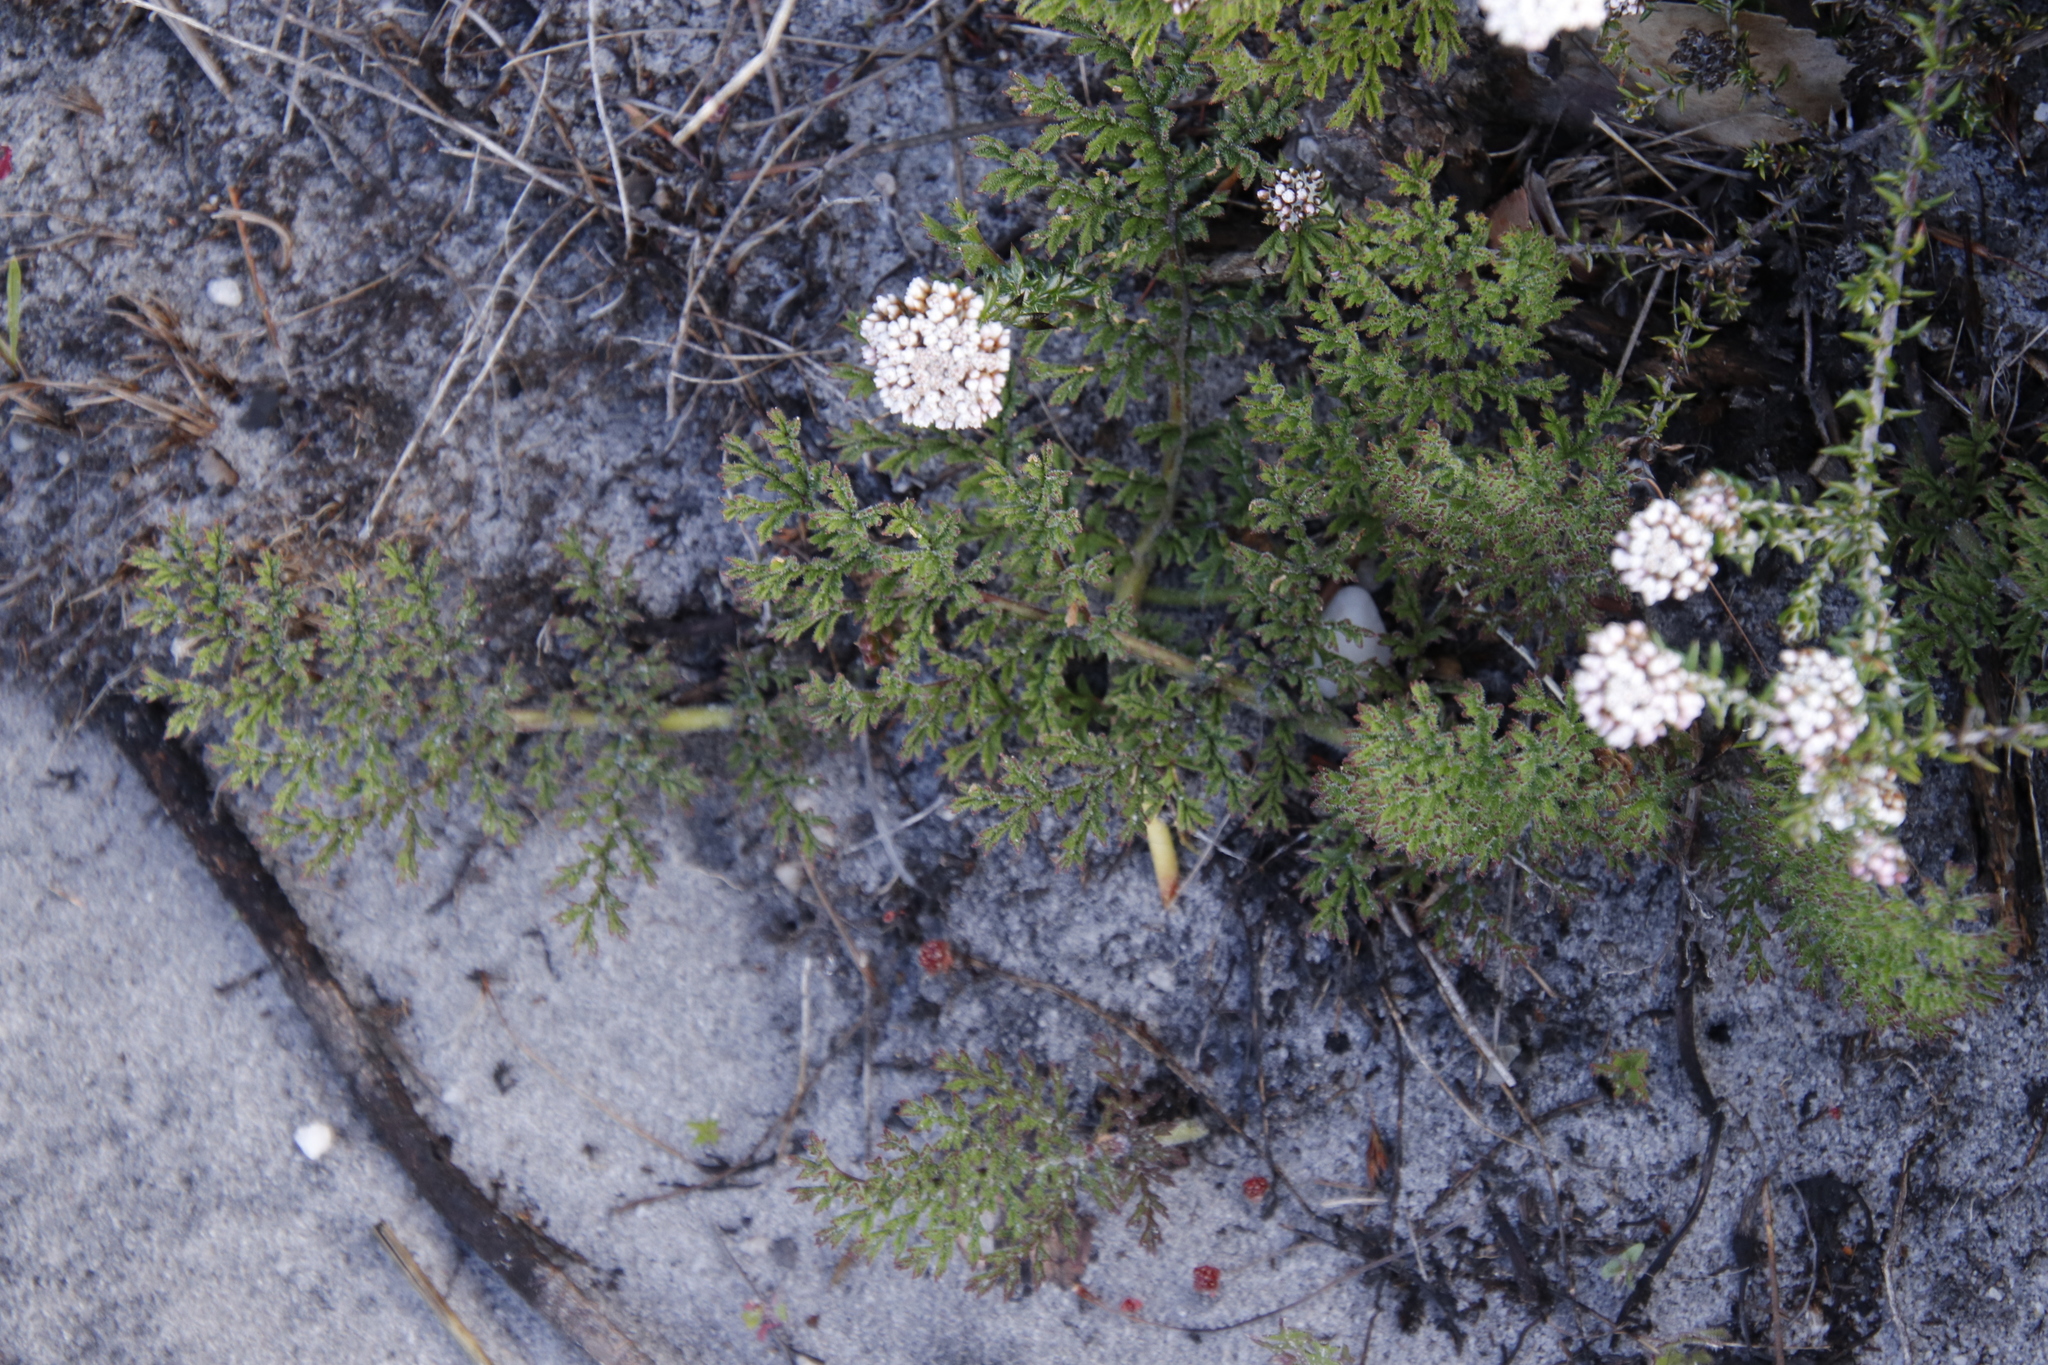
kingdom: Plantae
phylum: Tracheophyta
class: Magnoliopsida
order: Geraniales
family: Geraniaceae
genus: Pelargonium
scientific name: Pelargonium triste
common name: Night-scent pelargonium
